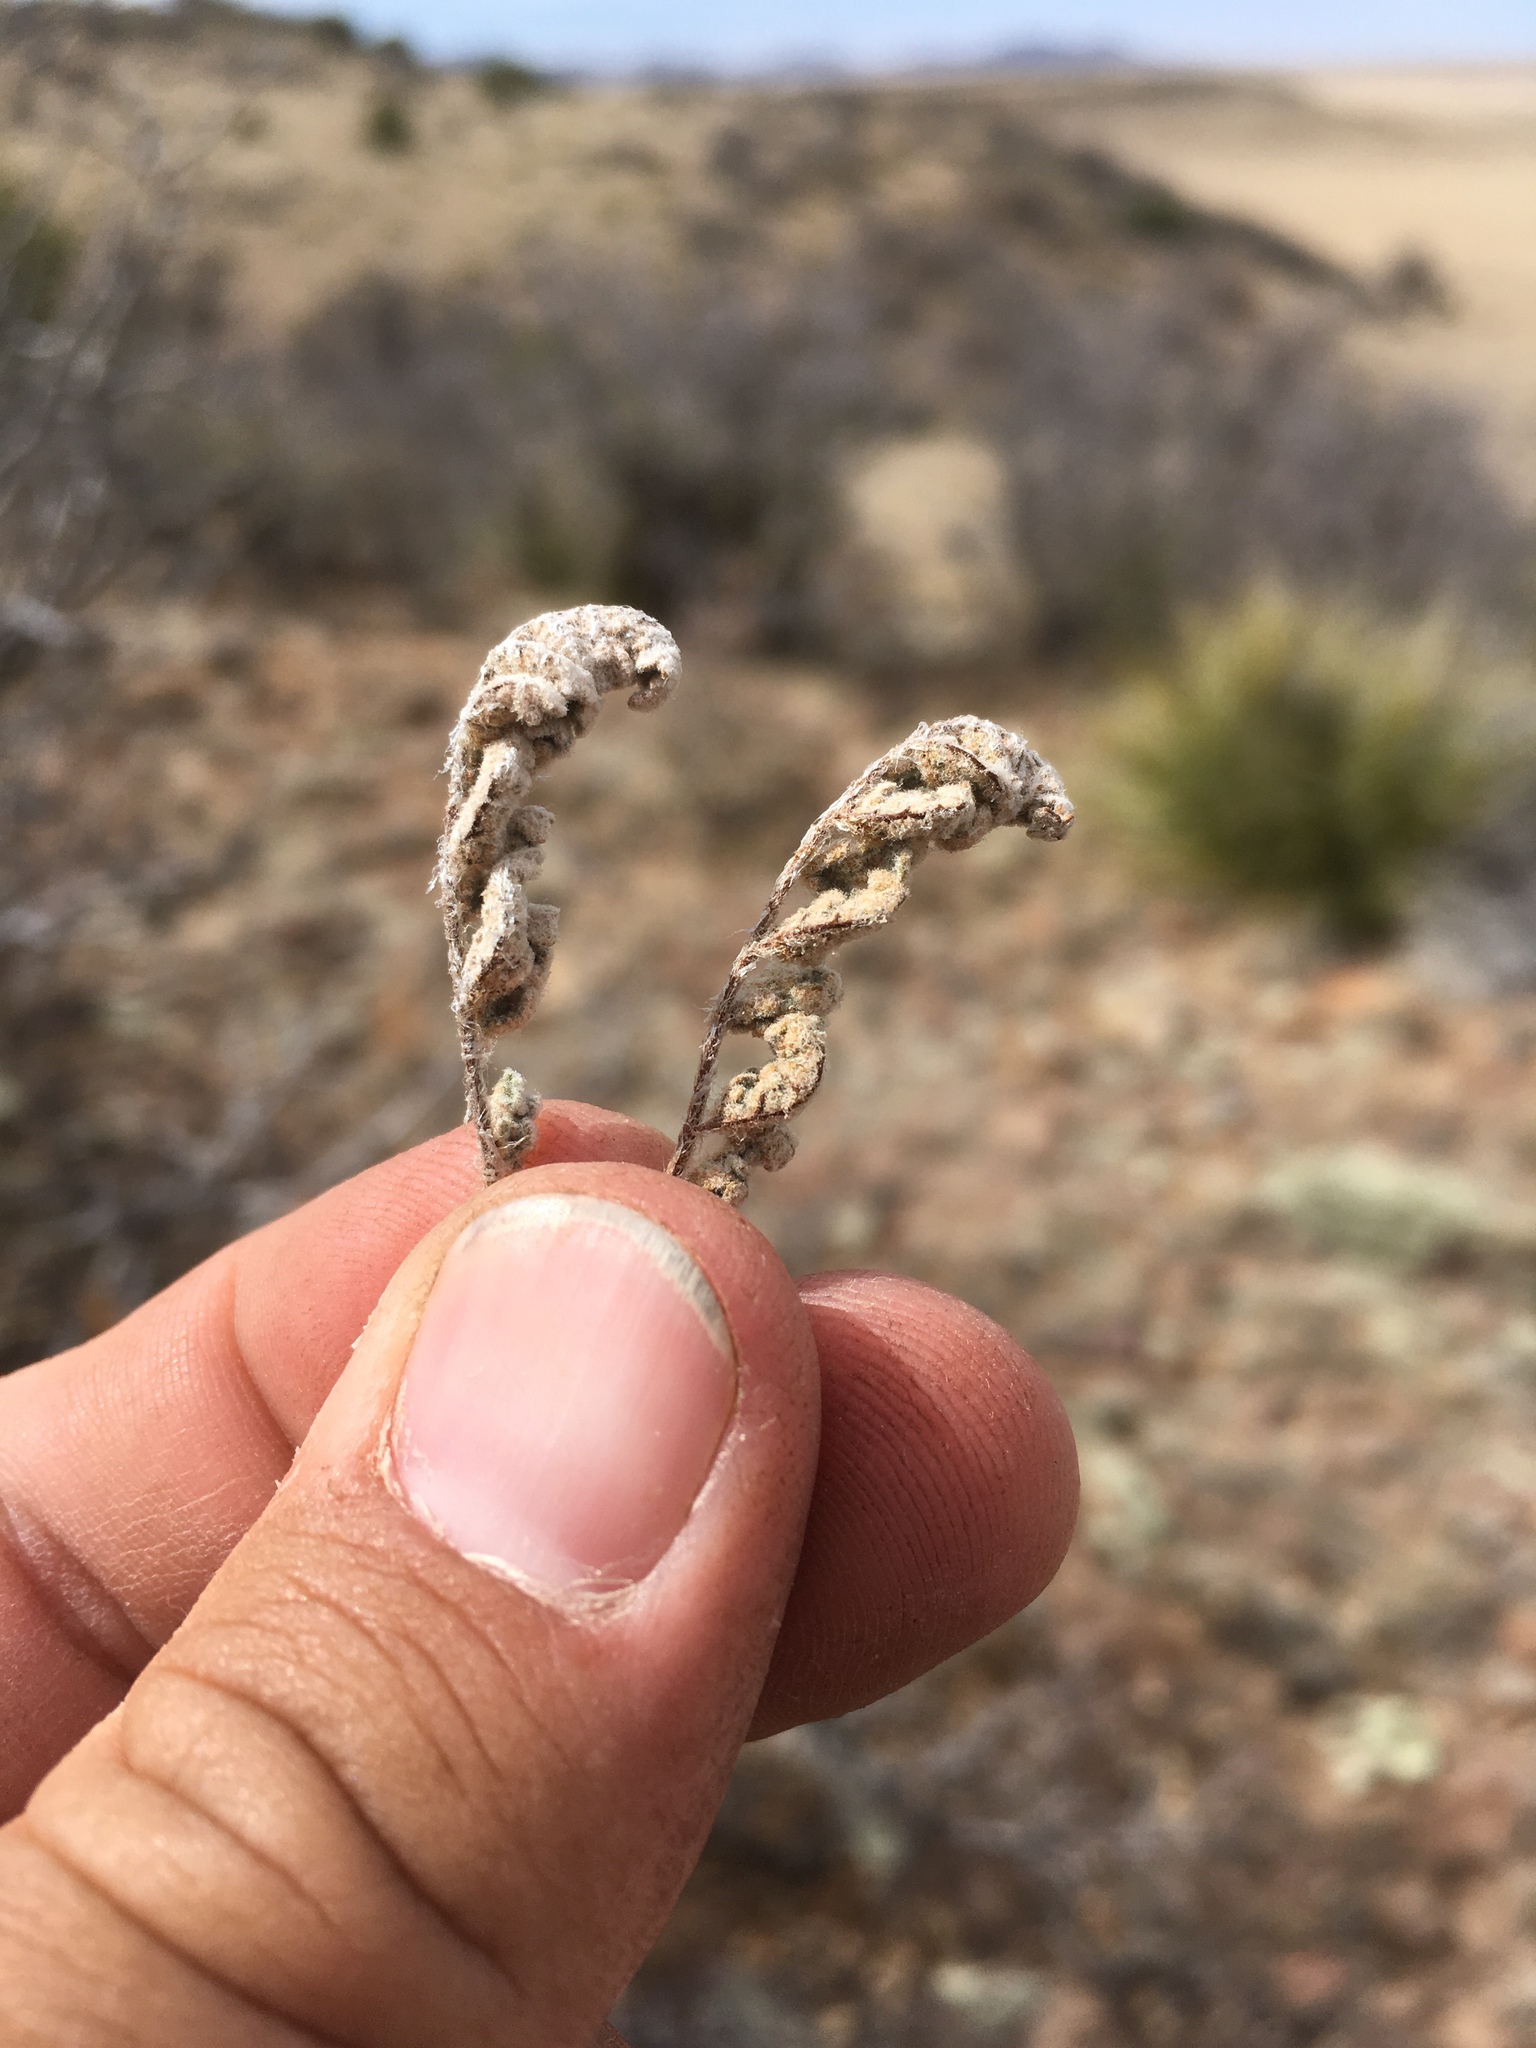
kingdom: Plantae
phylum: Tracheophyta
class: Polypodiopsida
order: Polypodiales
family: Pteridaceae
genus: Myriopteris
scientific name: Myriopteris rufa
